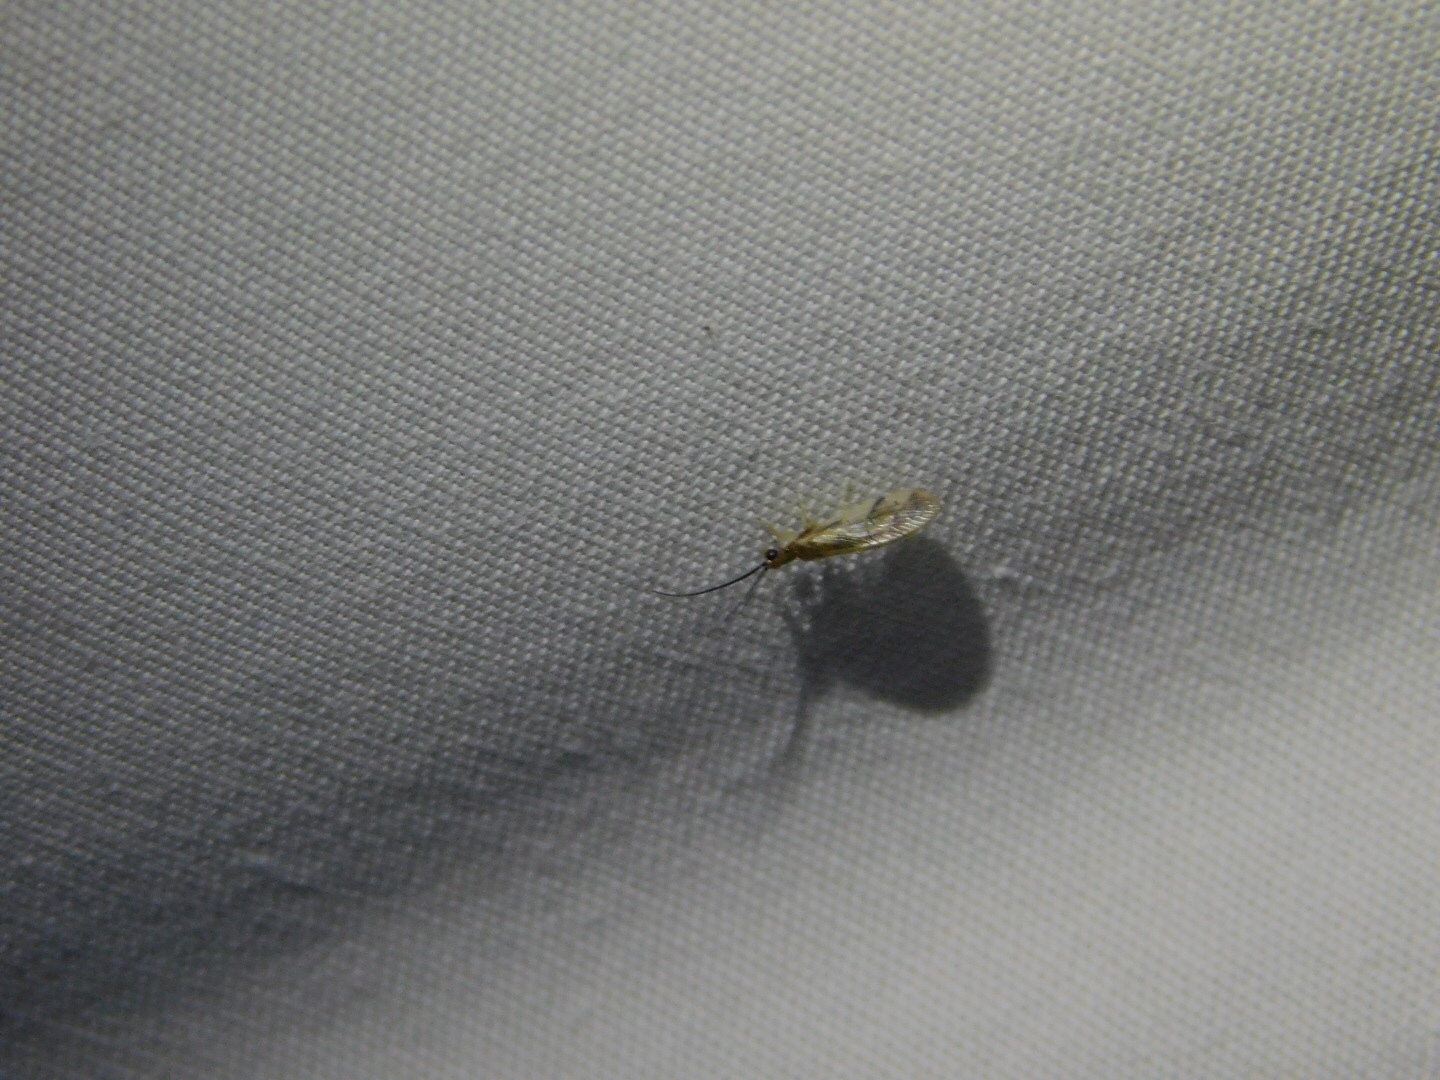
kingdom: Animalia
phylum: Arthropoda
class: Insecta
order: Neuroptera
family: Sisyridae
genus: Climacia
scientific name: Climacia areolaris
